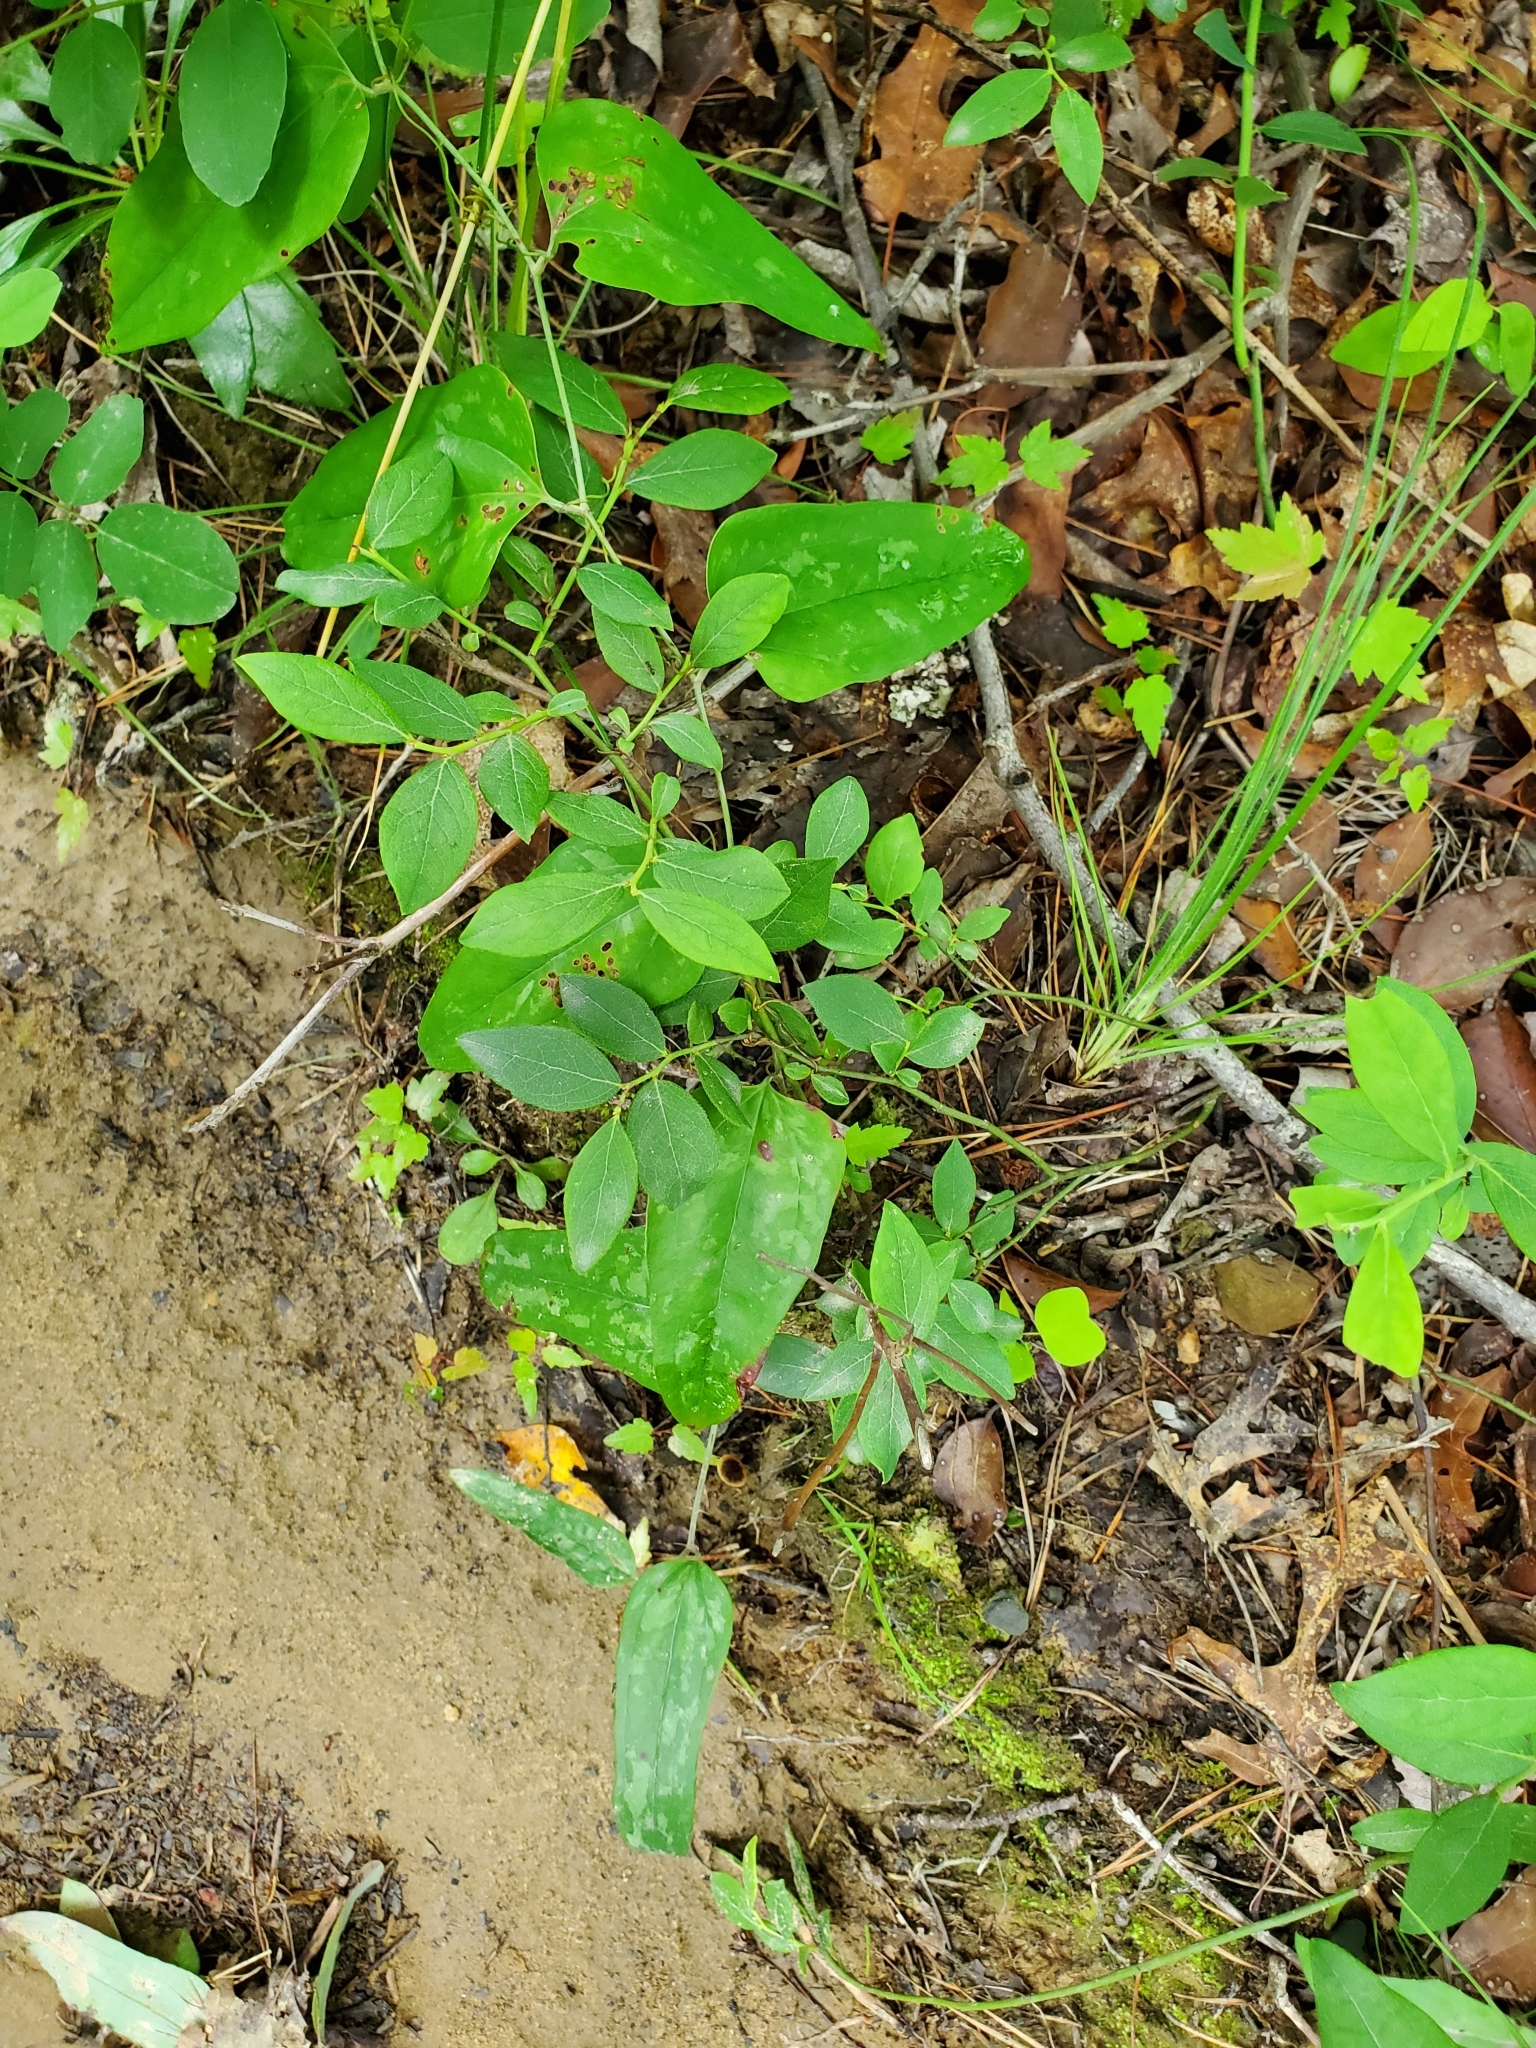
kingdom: Plantae
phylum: Tracheophyta
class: Liliopsida
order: Liliales
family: Smilacaceae
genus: Smilax
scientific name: Smilax glauca
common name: Cat greenbrier
